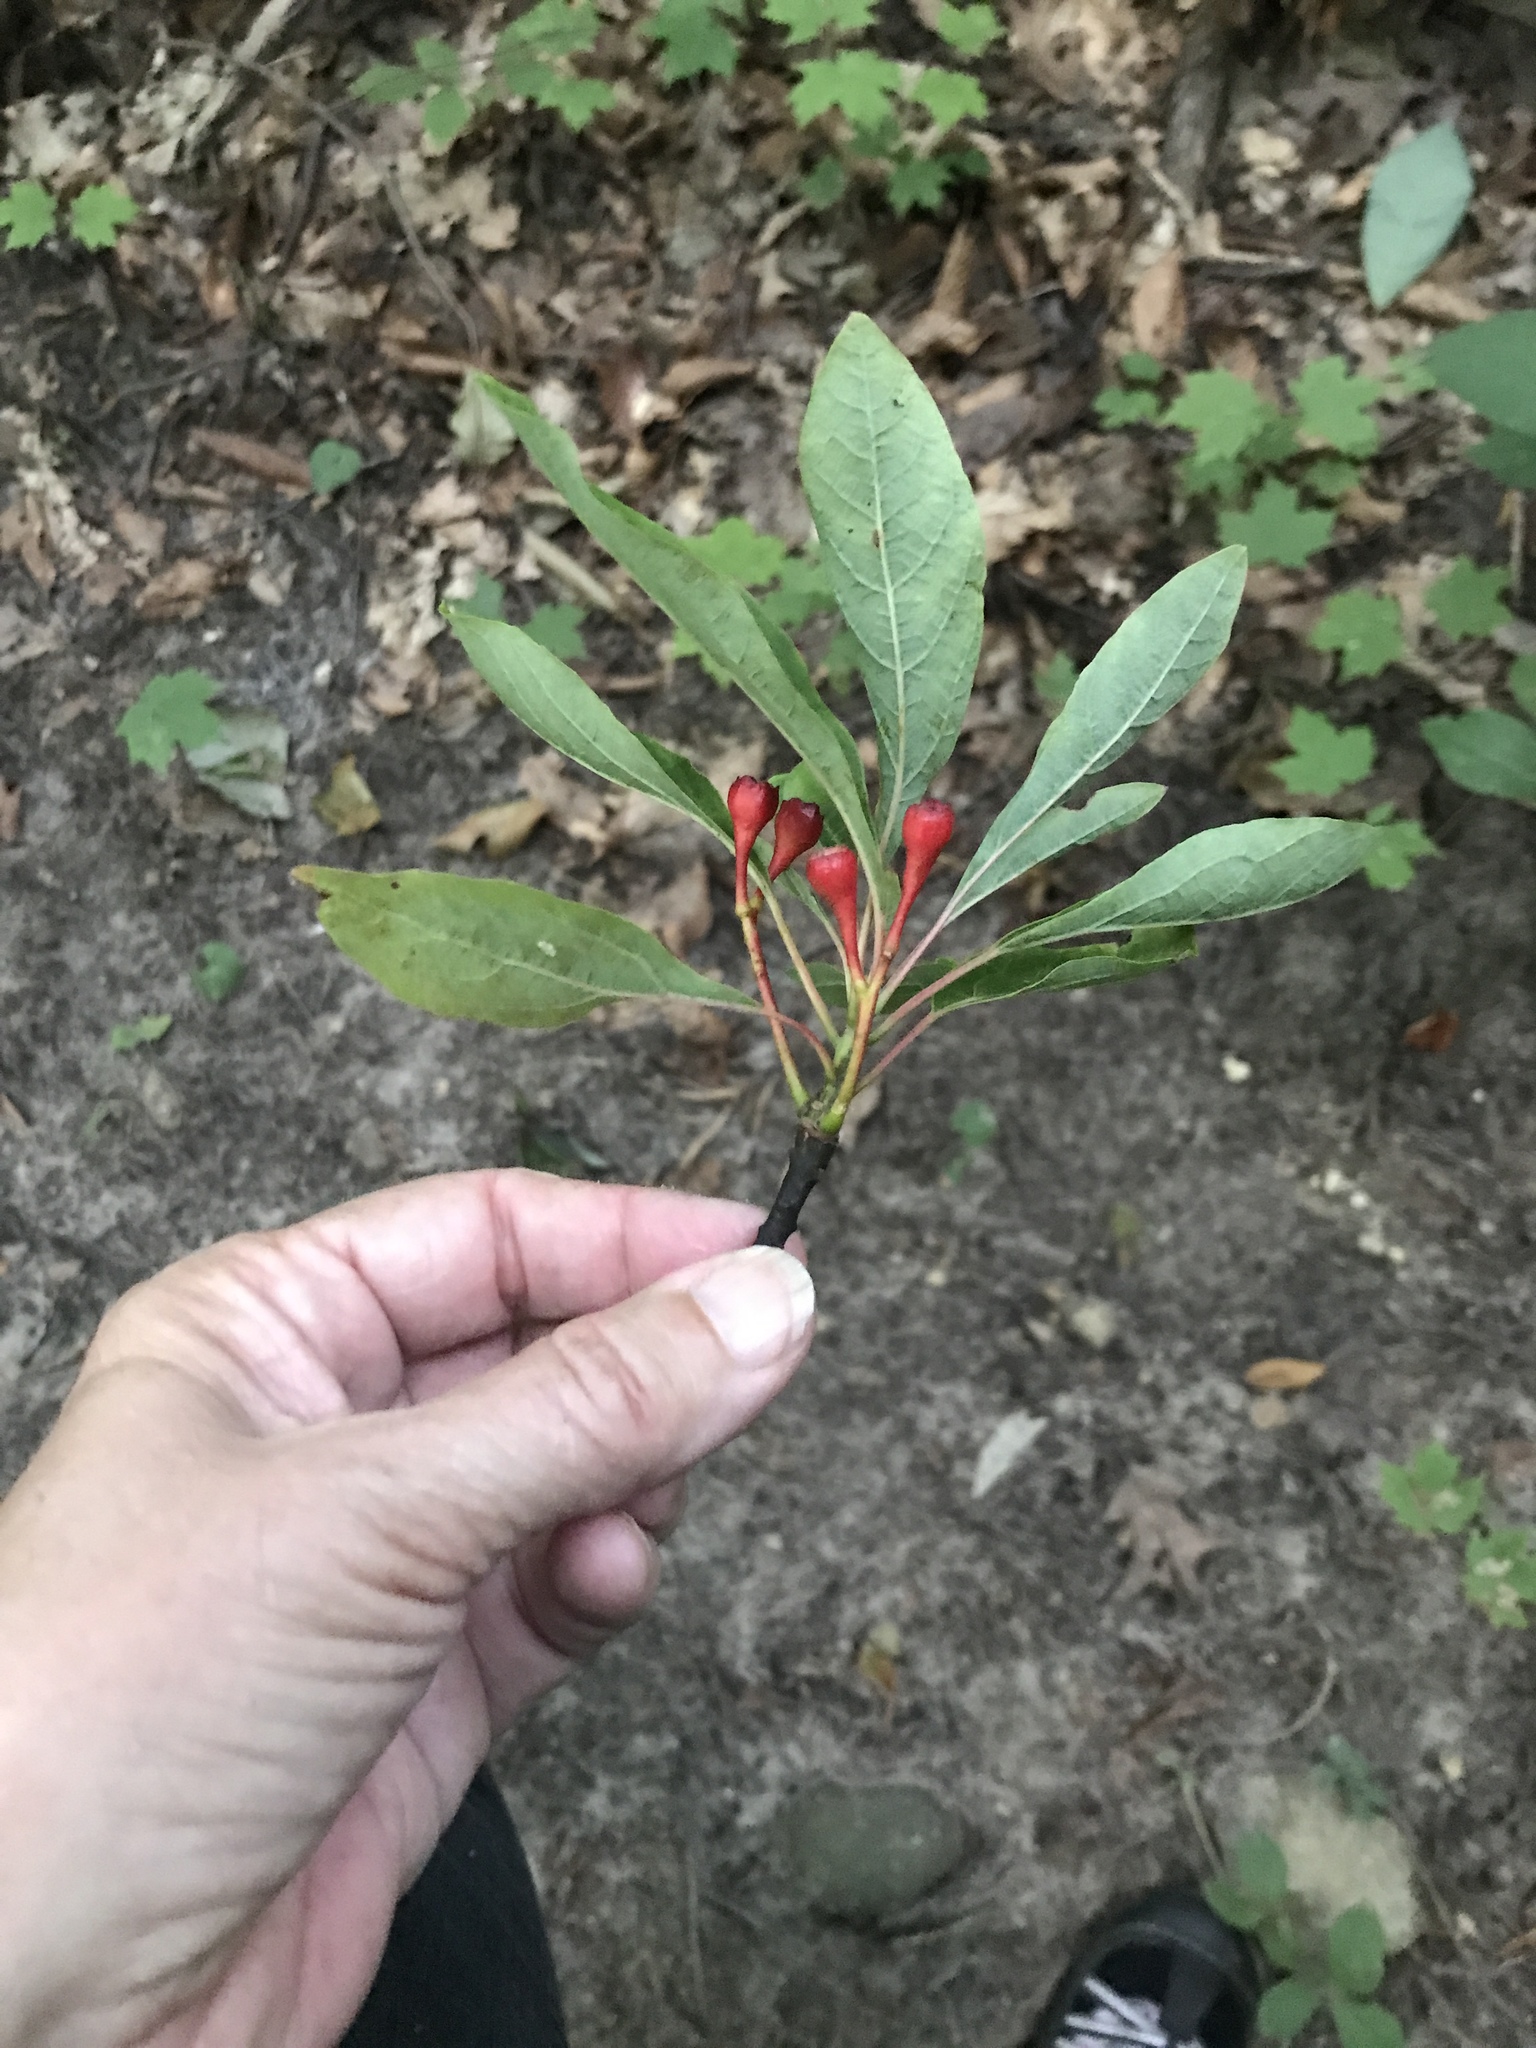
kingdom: Plantae
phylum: Tracheophyta
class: Magnoliopsida
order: Laurales
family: Lauraceae
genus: Sassafras
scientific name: Sassafras albidum
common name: Sassafras
